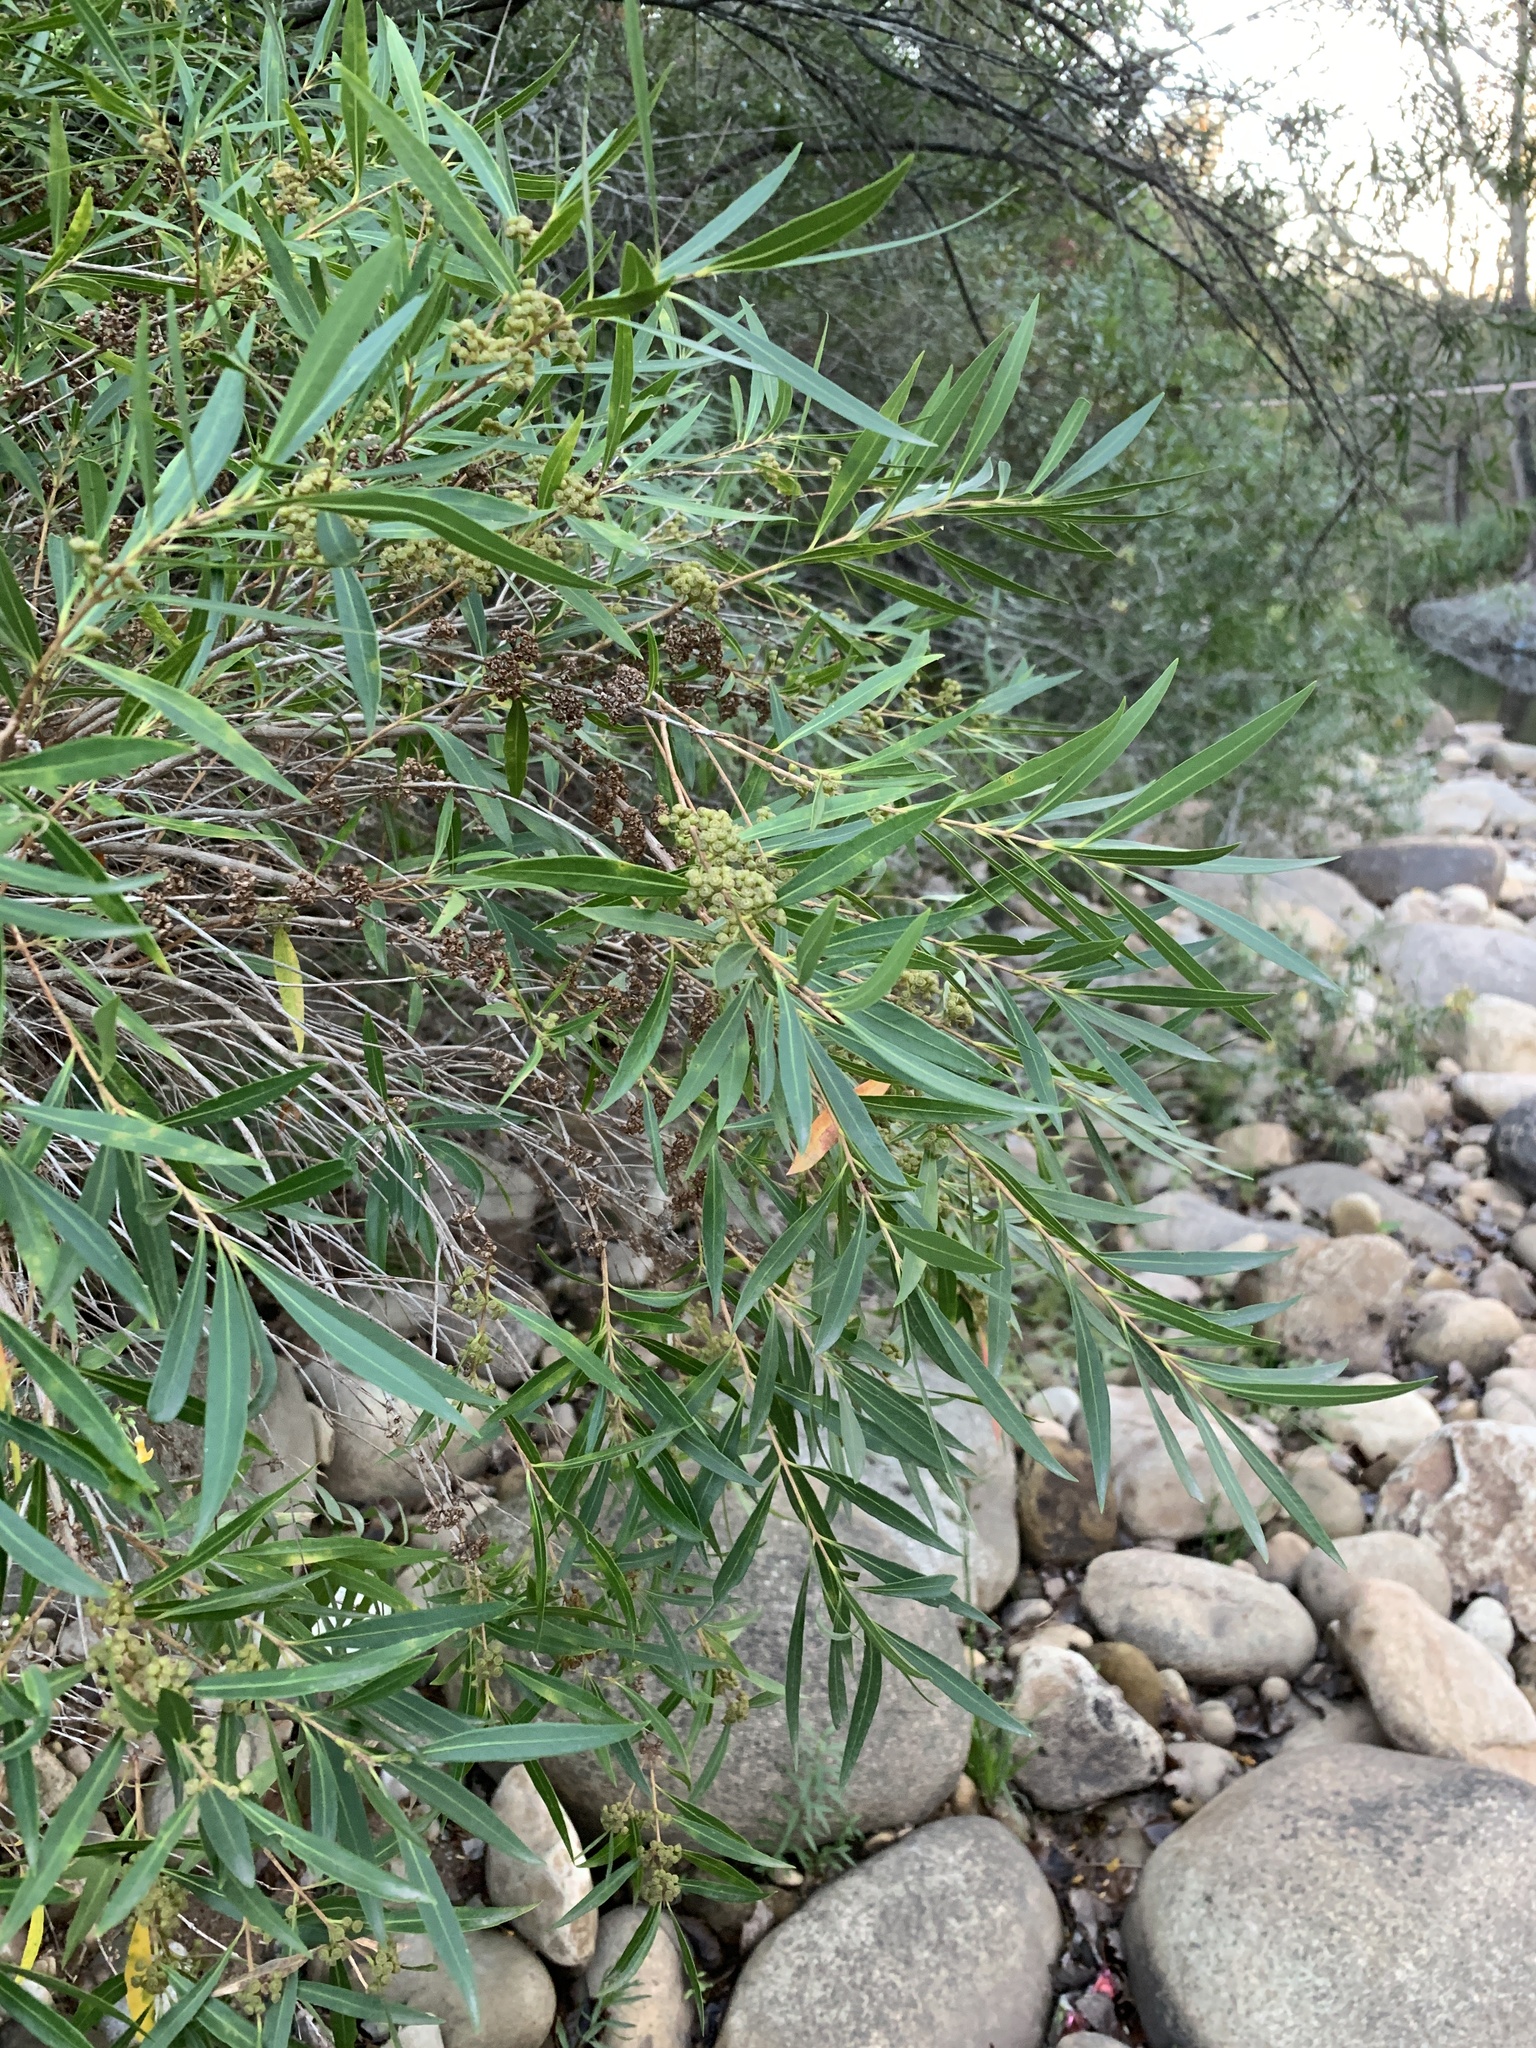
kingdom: Plantae
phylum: Tracheophyta
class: Magnoliopsida
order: Myrtales
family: Myrtaceae
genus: Callistemon
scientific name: Callistemon lanceolatus
